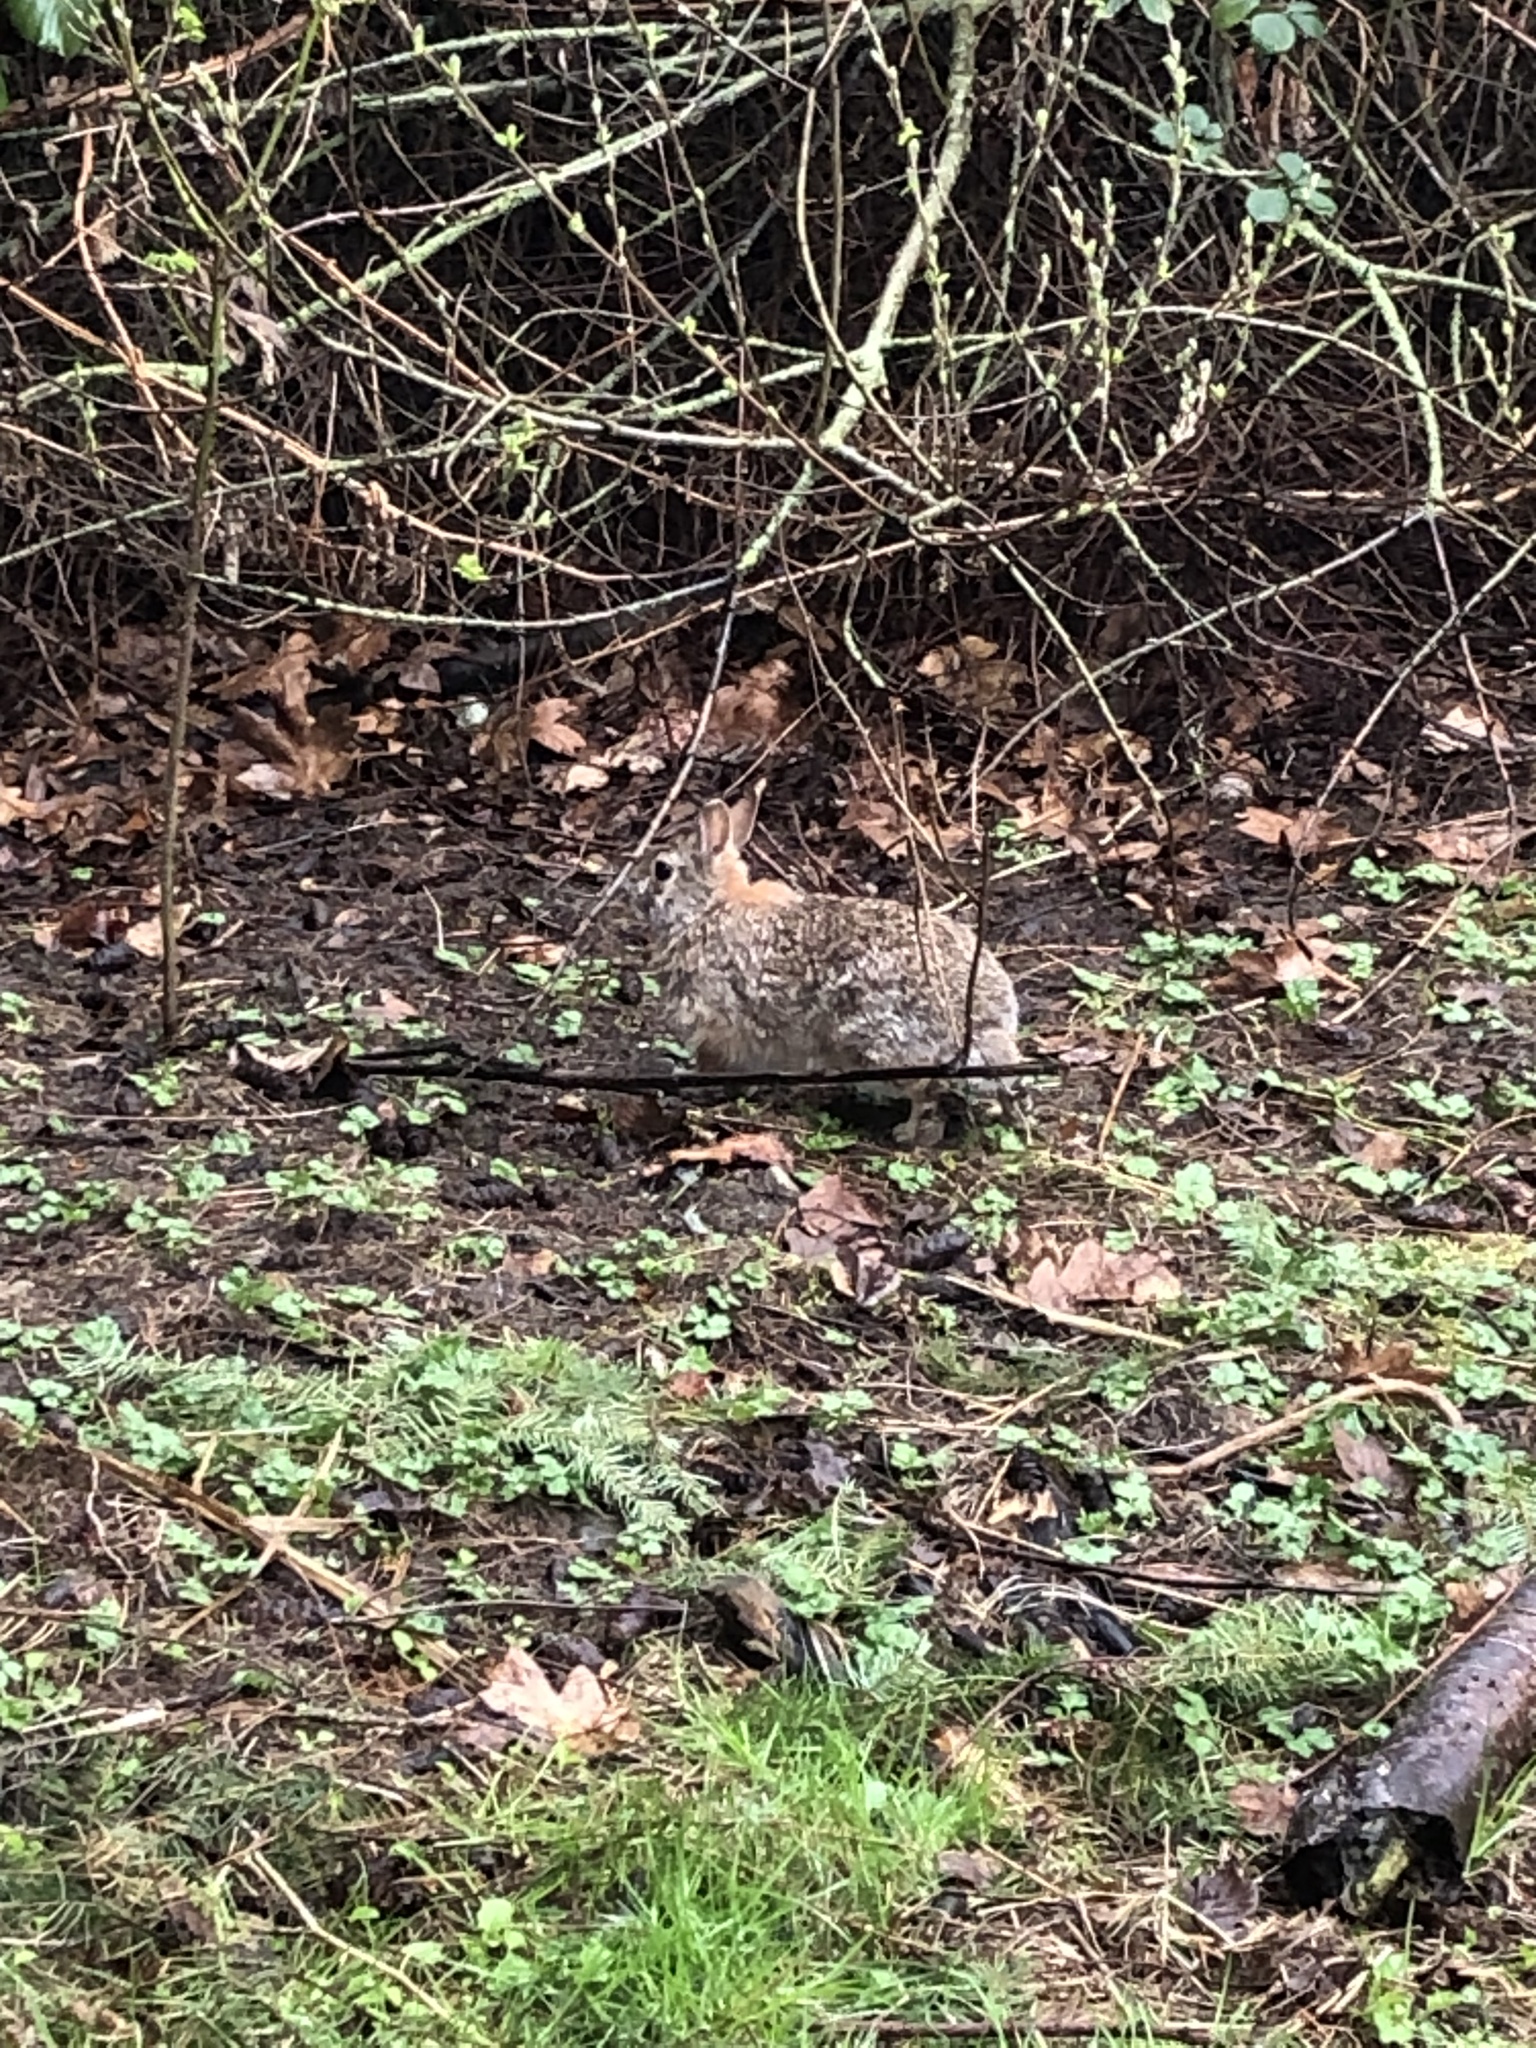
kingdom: Animalia
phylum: Chordata
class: Mammalia
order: Lagomorpha
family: Leporidae
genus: Sylvilagus
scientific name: Sylvilagus floridanus
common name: Eastern cottontail
